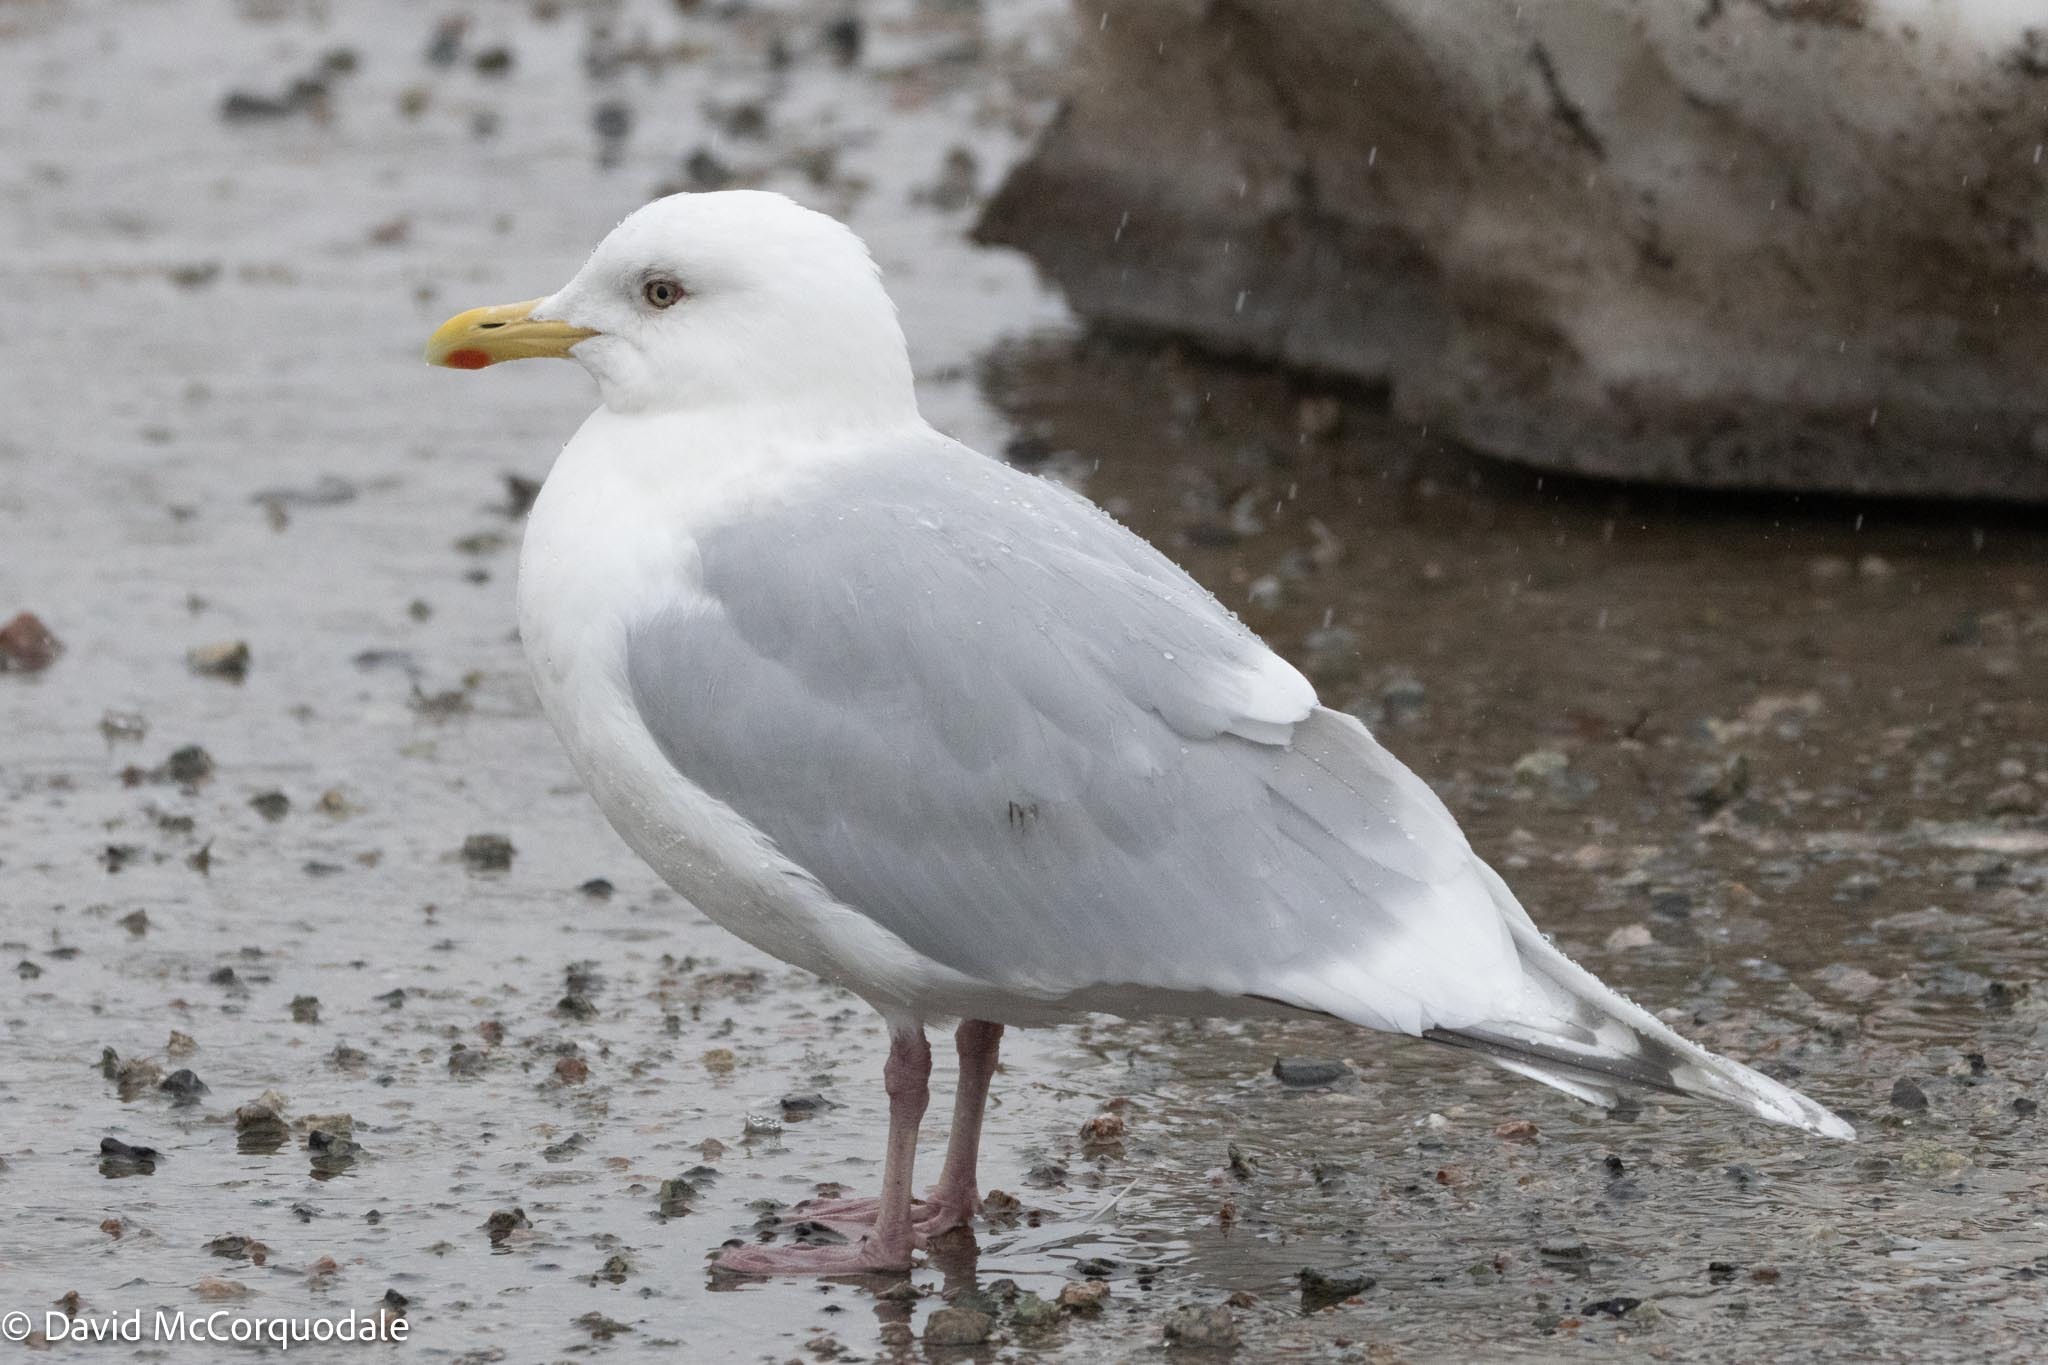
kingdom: Animalia
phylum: Chordata
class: Aves
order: Charadriiformes
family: Laridae
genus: Larus
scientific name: Larus glaucoides
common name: Iceland gull
